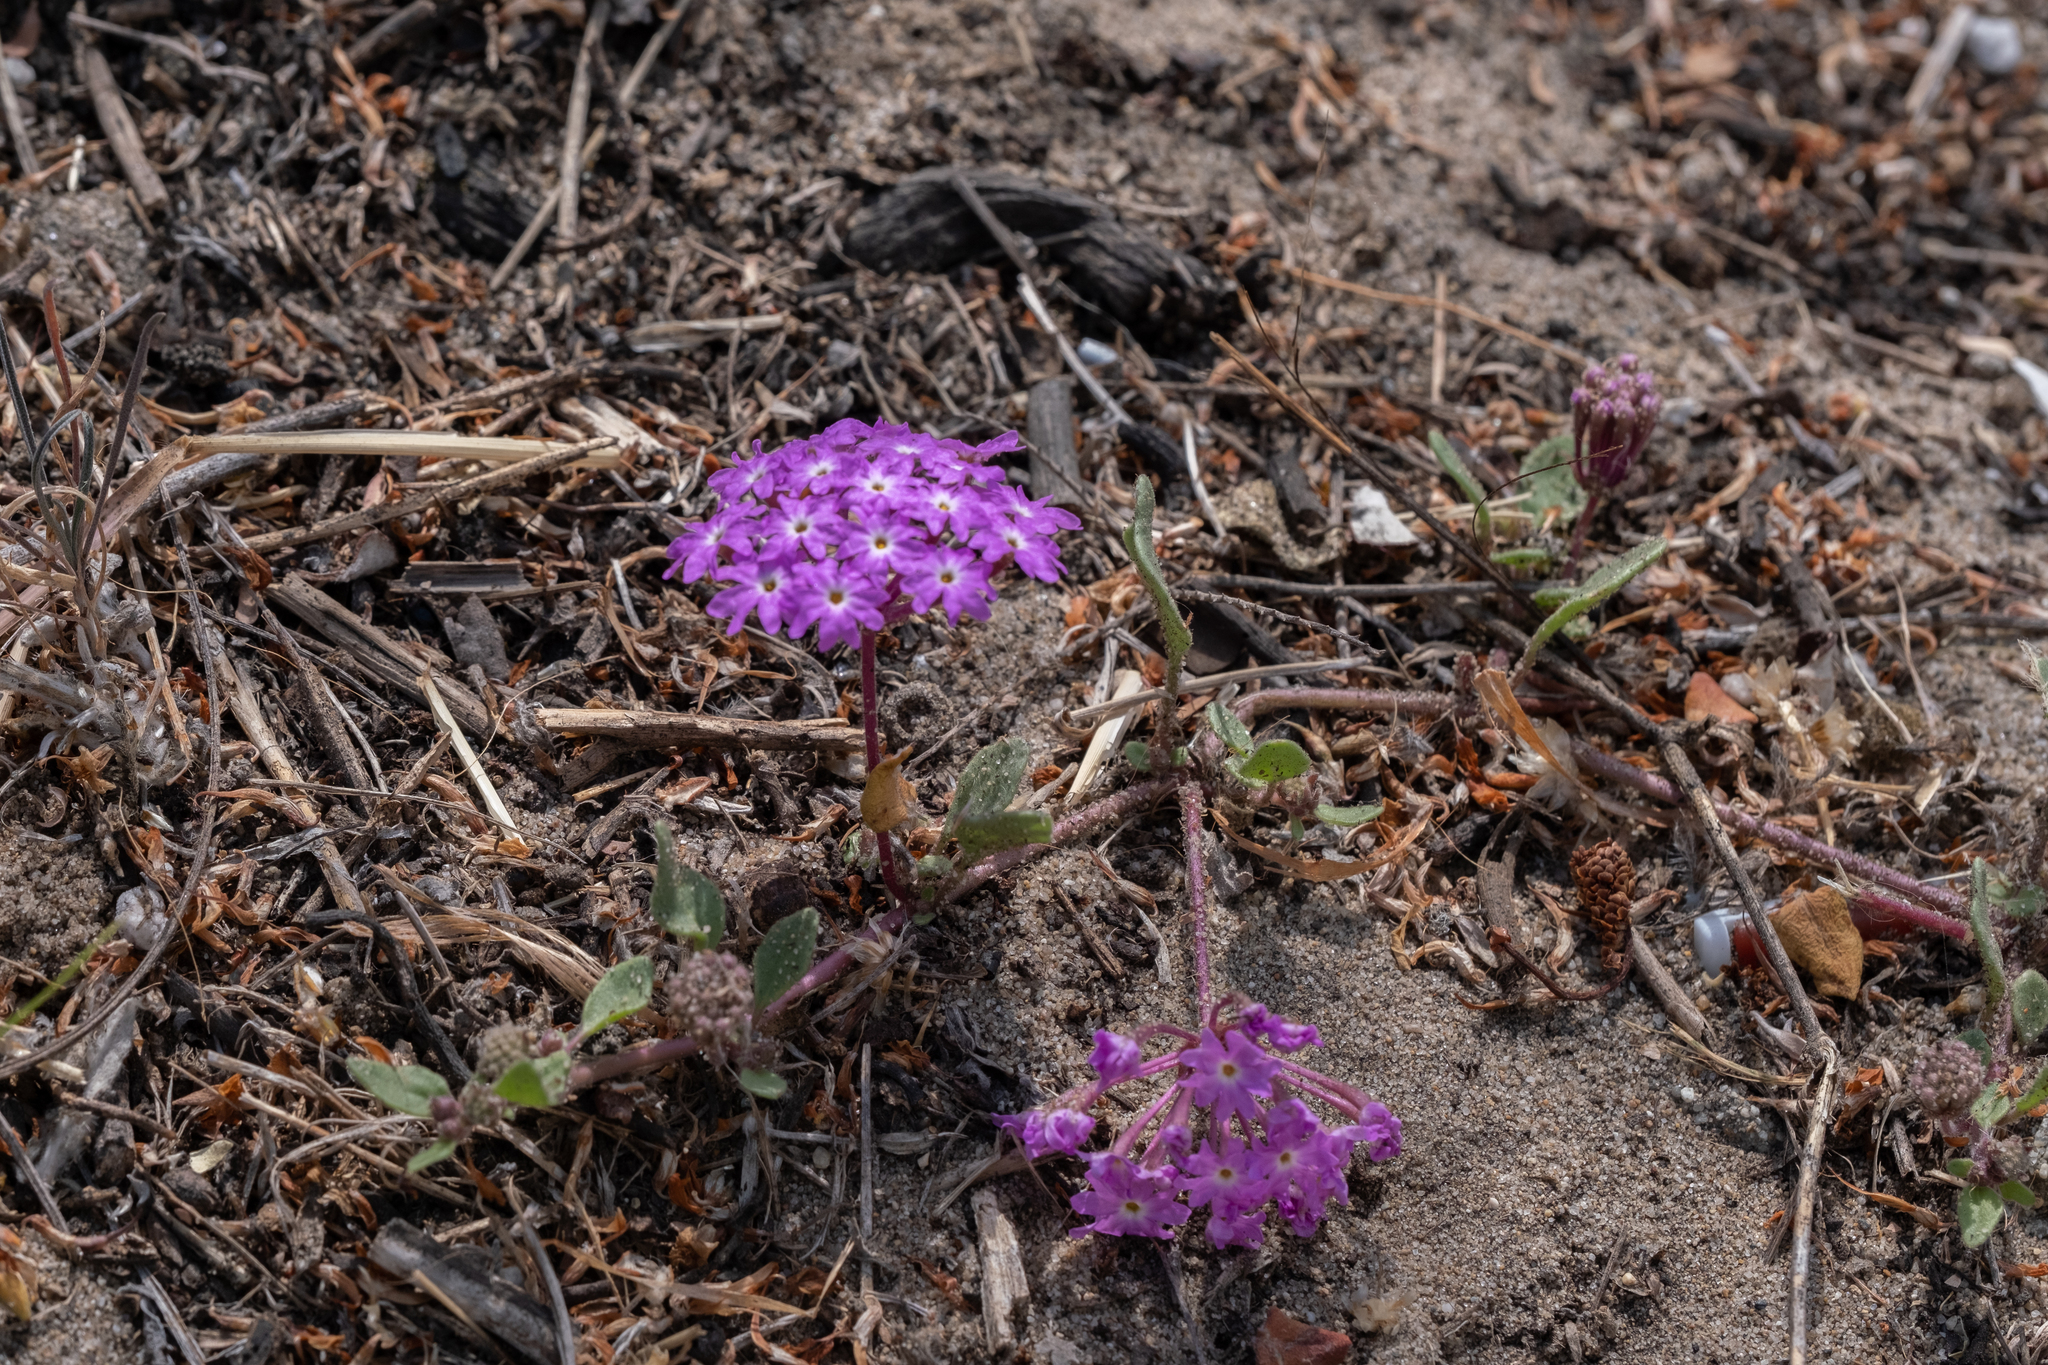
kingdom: Plantae
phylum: Tracheophyta
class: Magnoliopsida
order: Caryophyllales
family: Nyctaginaceae
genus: Abronia
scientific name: Abronia umbellata
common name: Sand-verbena
